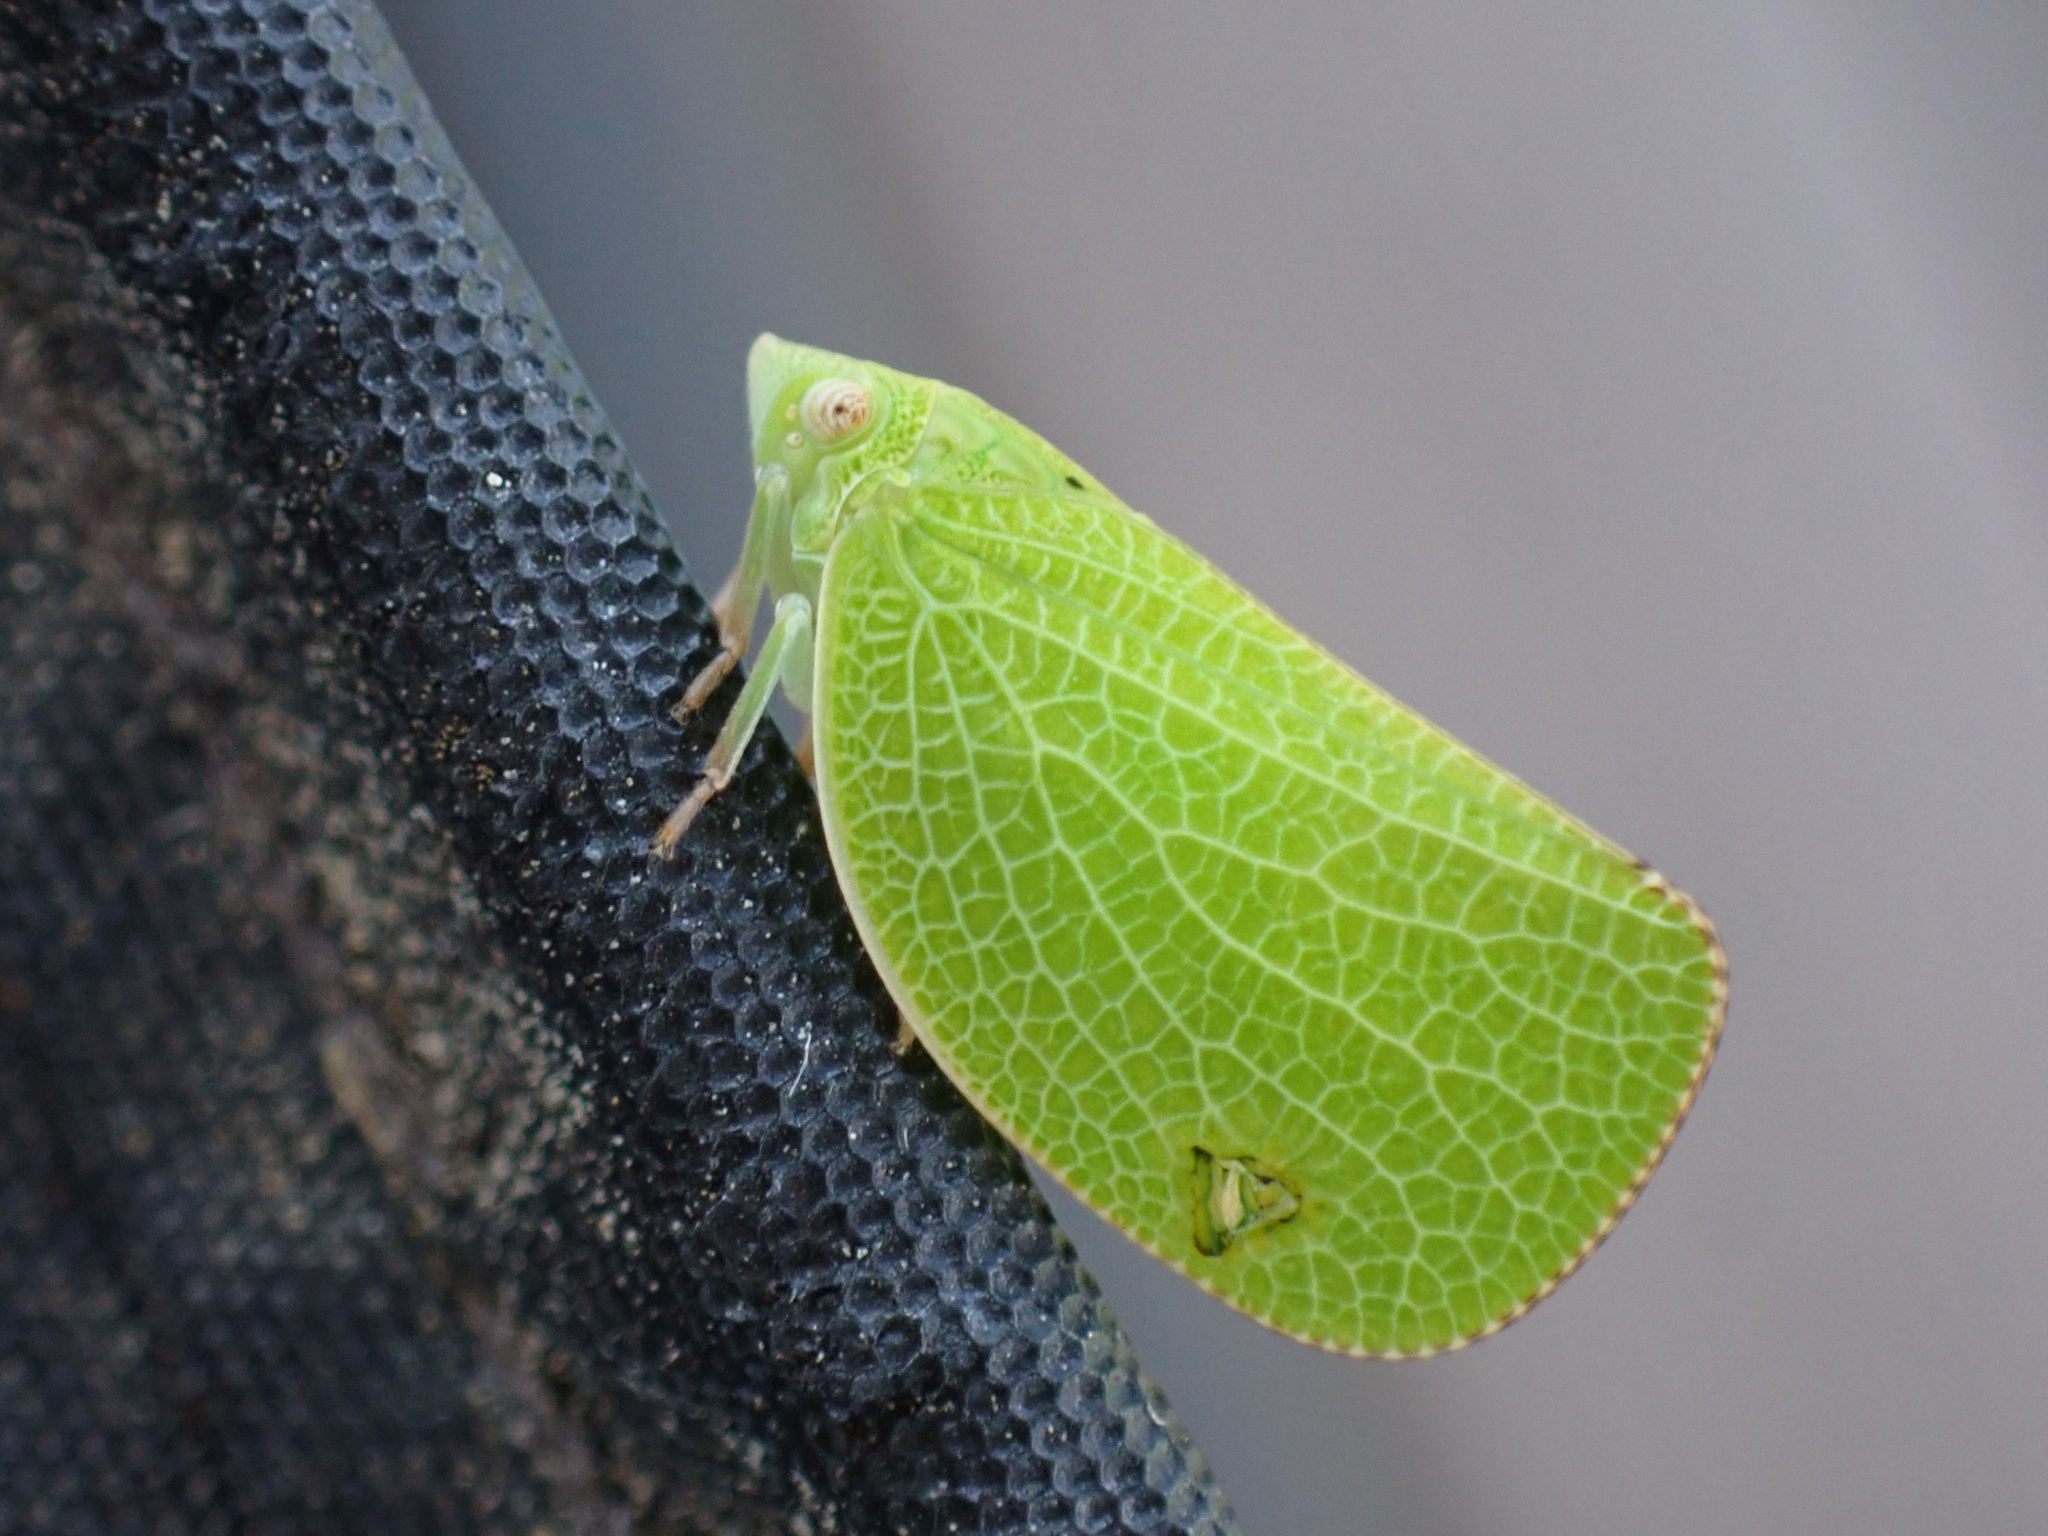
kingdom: Animalia
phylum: Arthropoda
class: Insecta
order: Hemiptera
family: Acanaloniidae
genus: Acanalonia
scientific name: Acanalonia conica
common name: Green cone-headed planthopper
